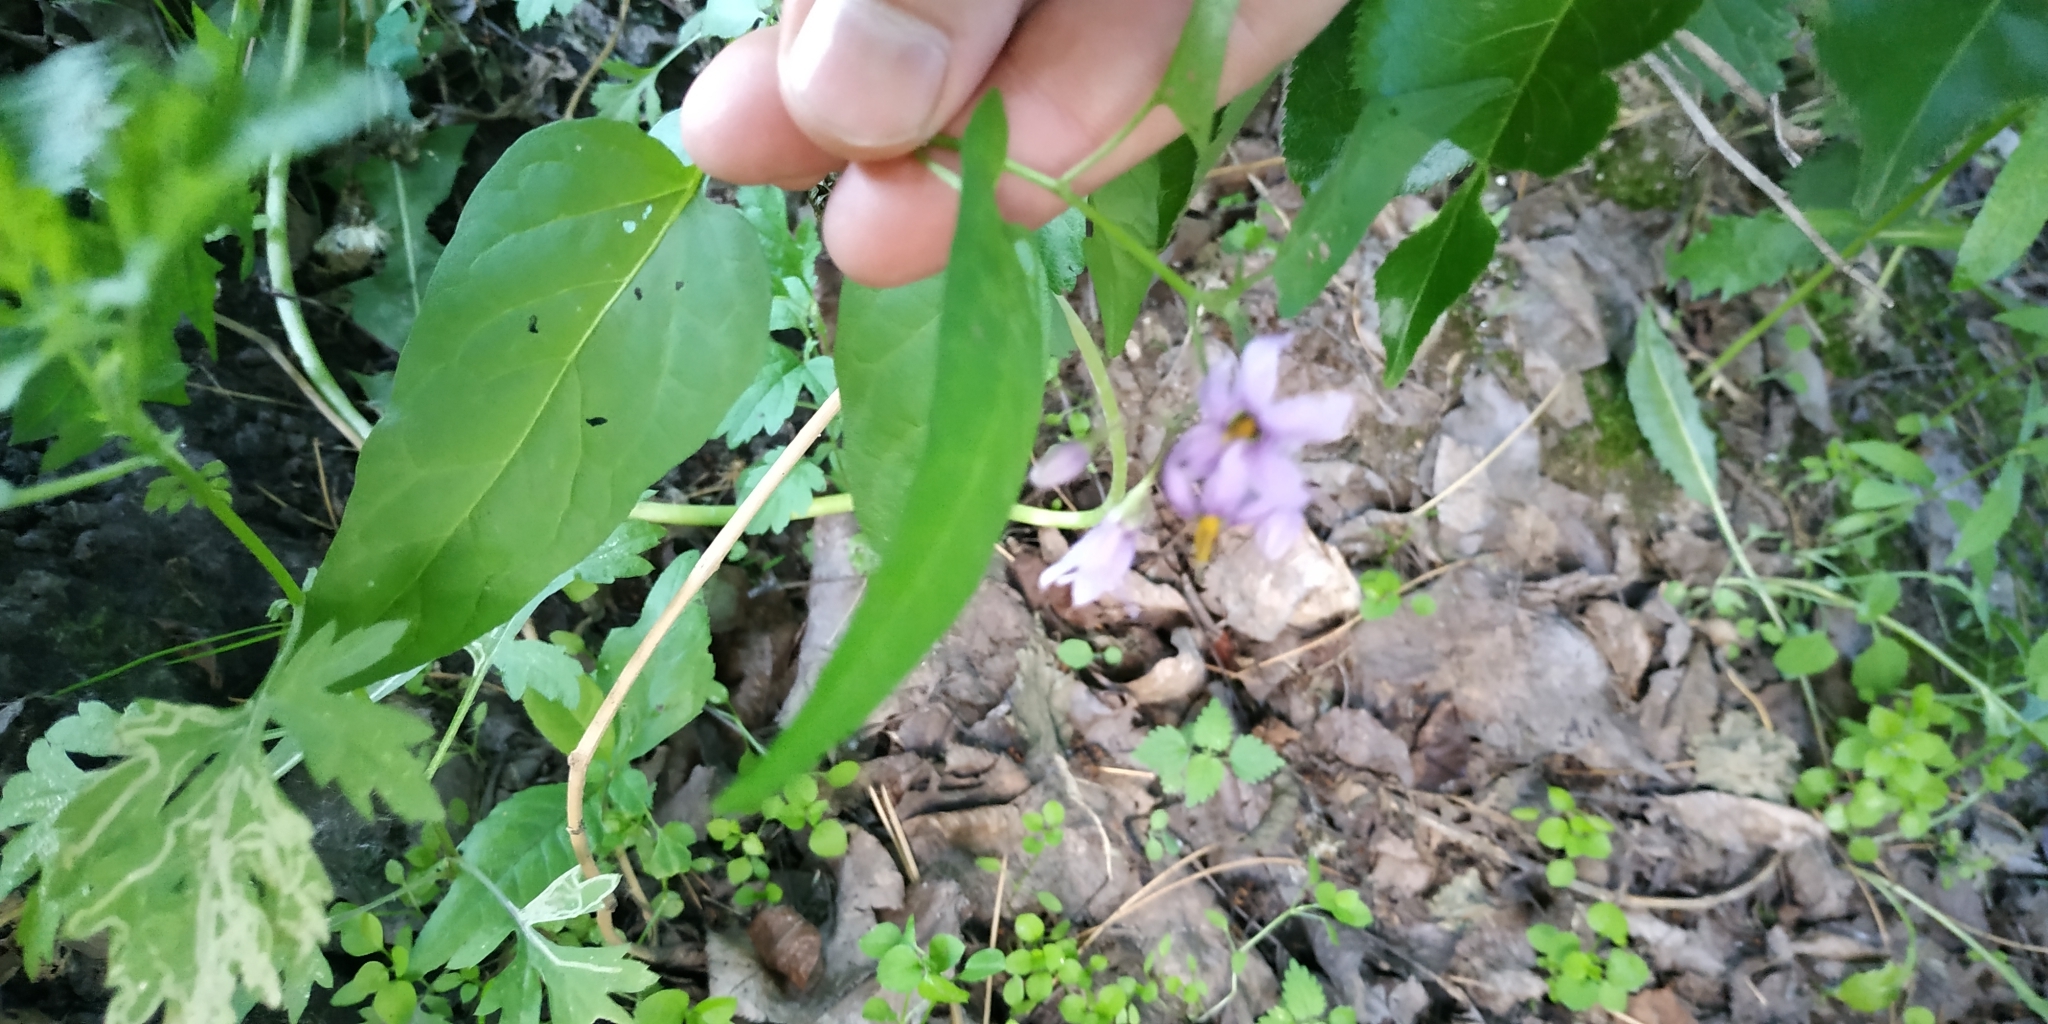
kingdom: Plantae
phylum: Tracheophyta
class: Magnoliopsida
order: Solanales
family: Solanaceae
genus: Solanum
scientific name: Solanum dulcamara
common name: Climbing nightshade
